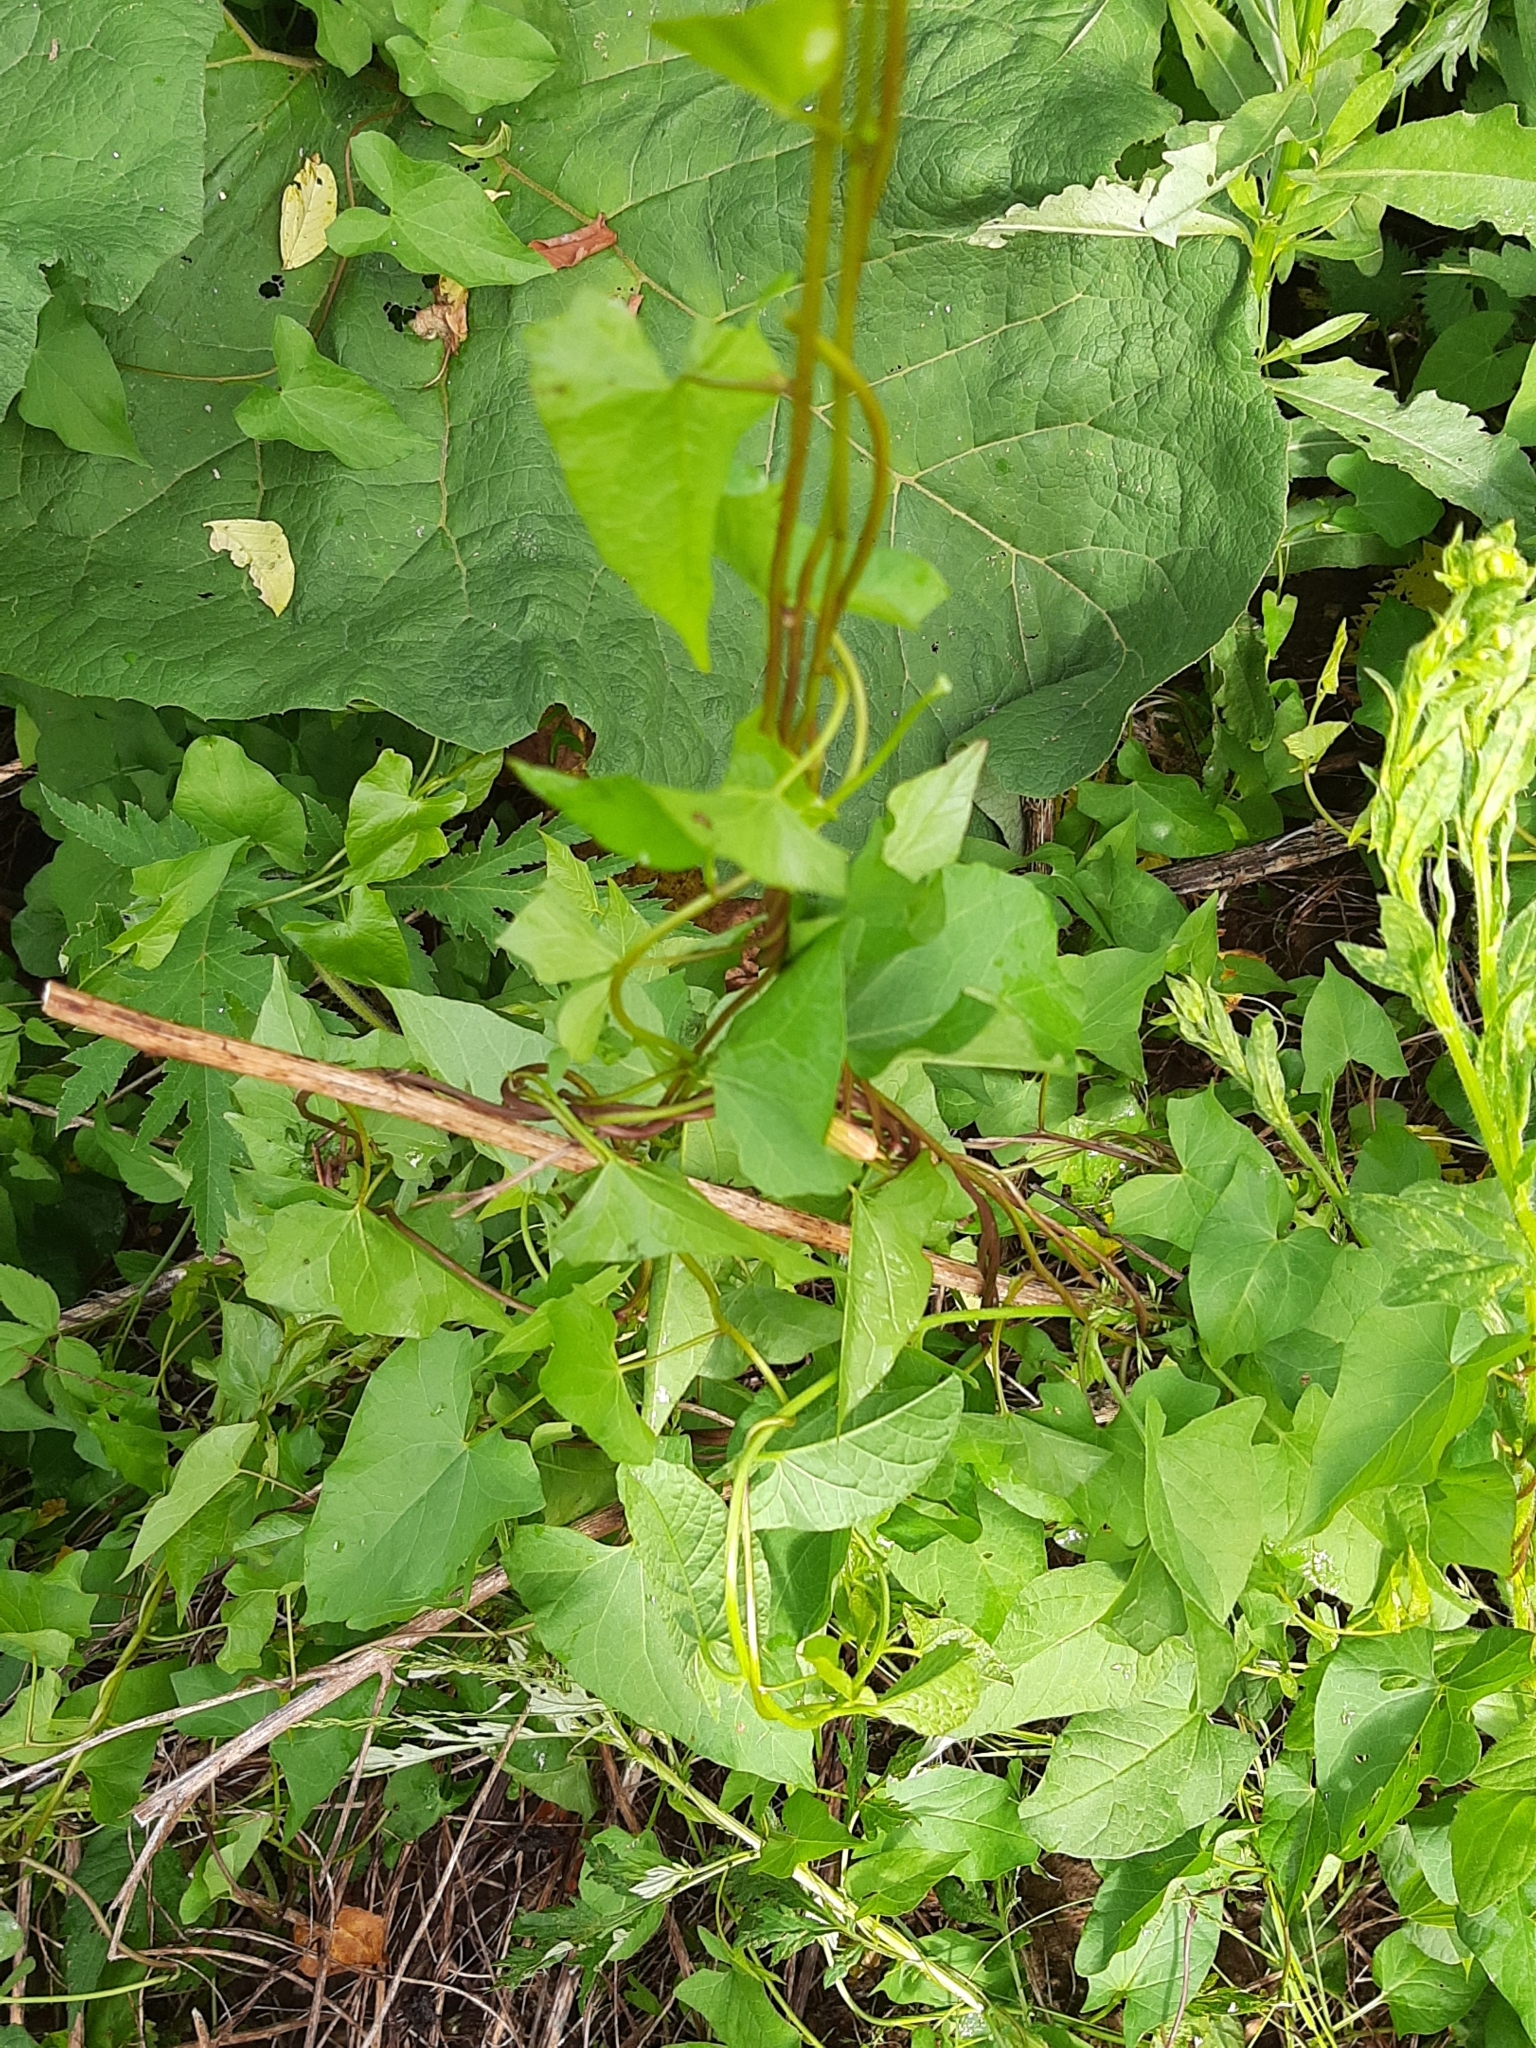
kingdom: Plantae
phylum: Tracheophyta
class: Magnoliopsida
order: Solanales
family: Convolvulaceae
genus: Calystegia
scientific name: Calystegia
